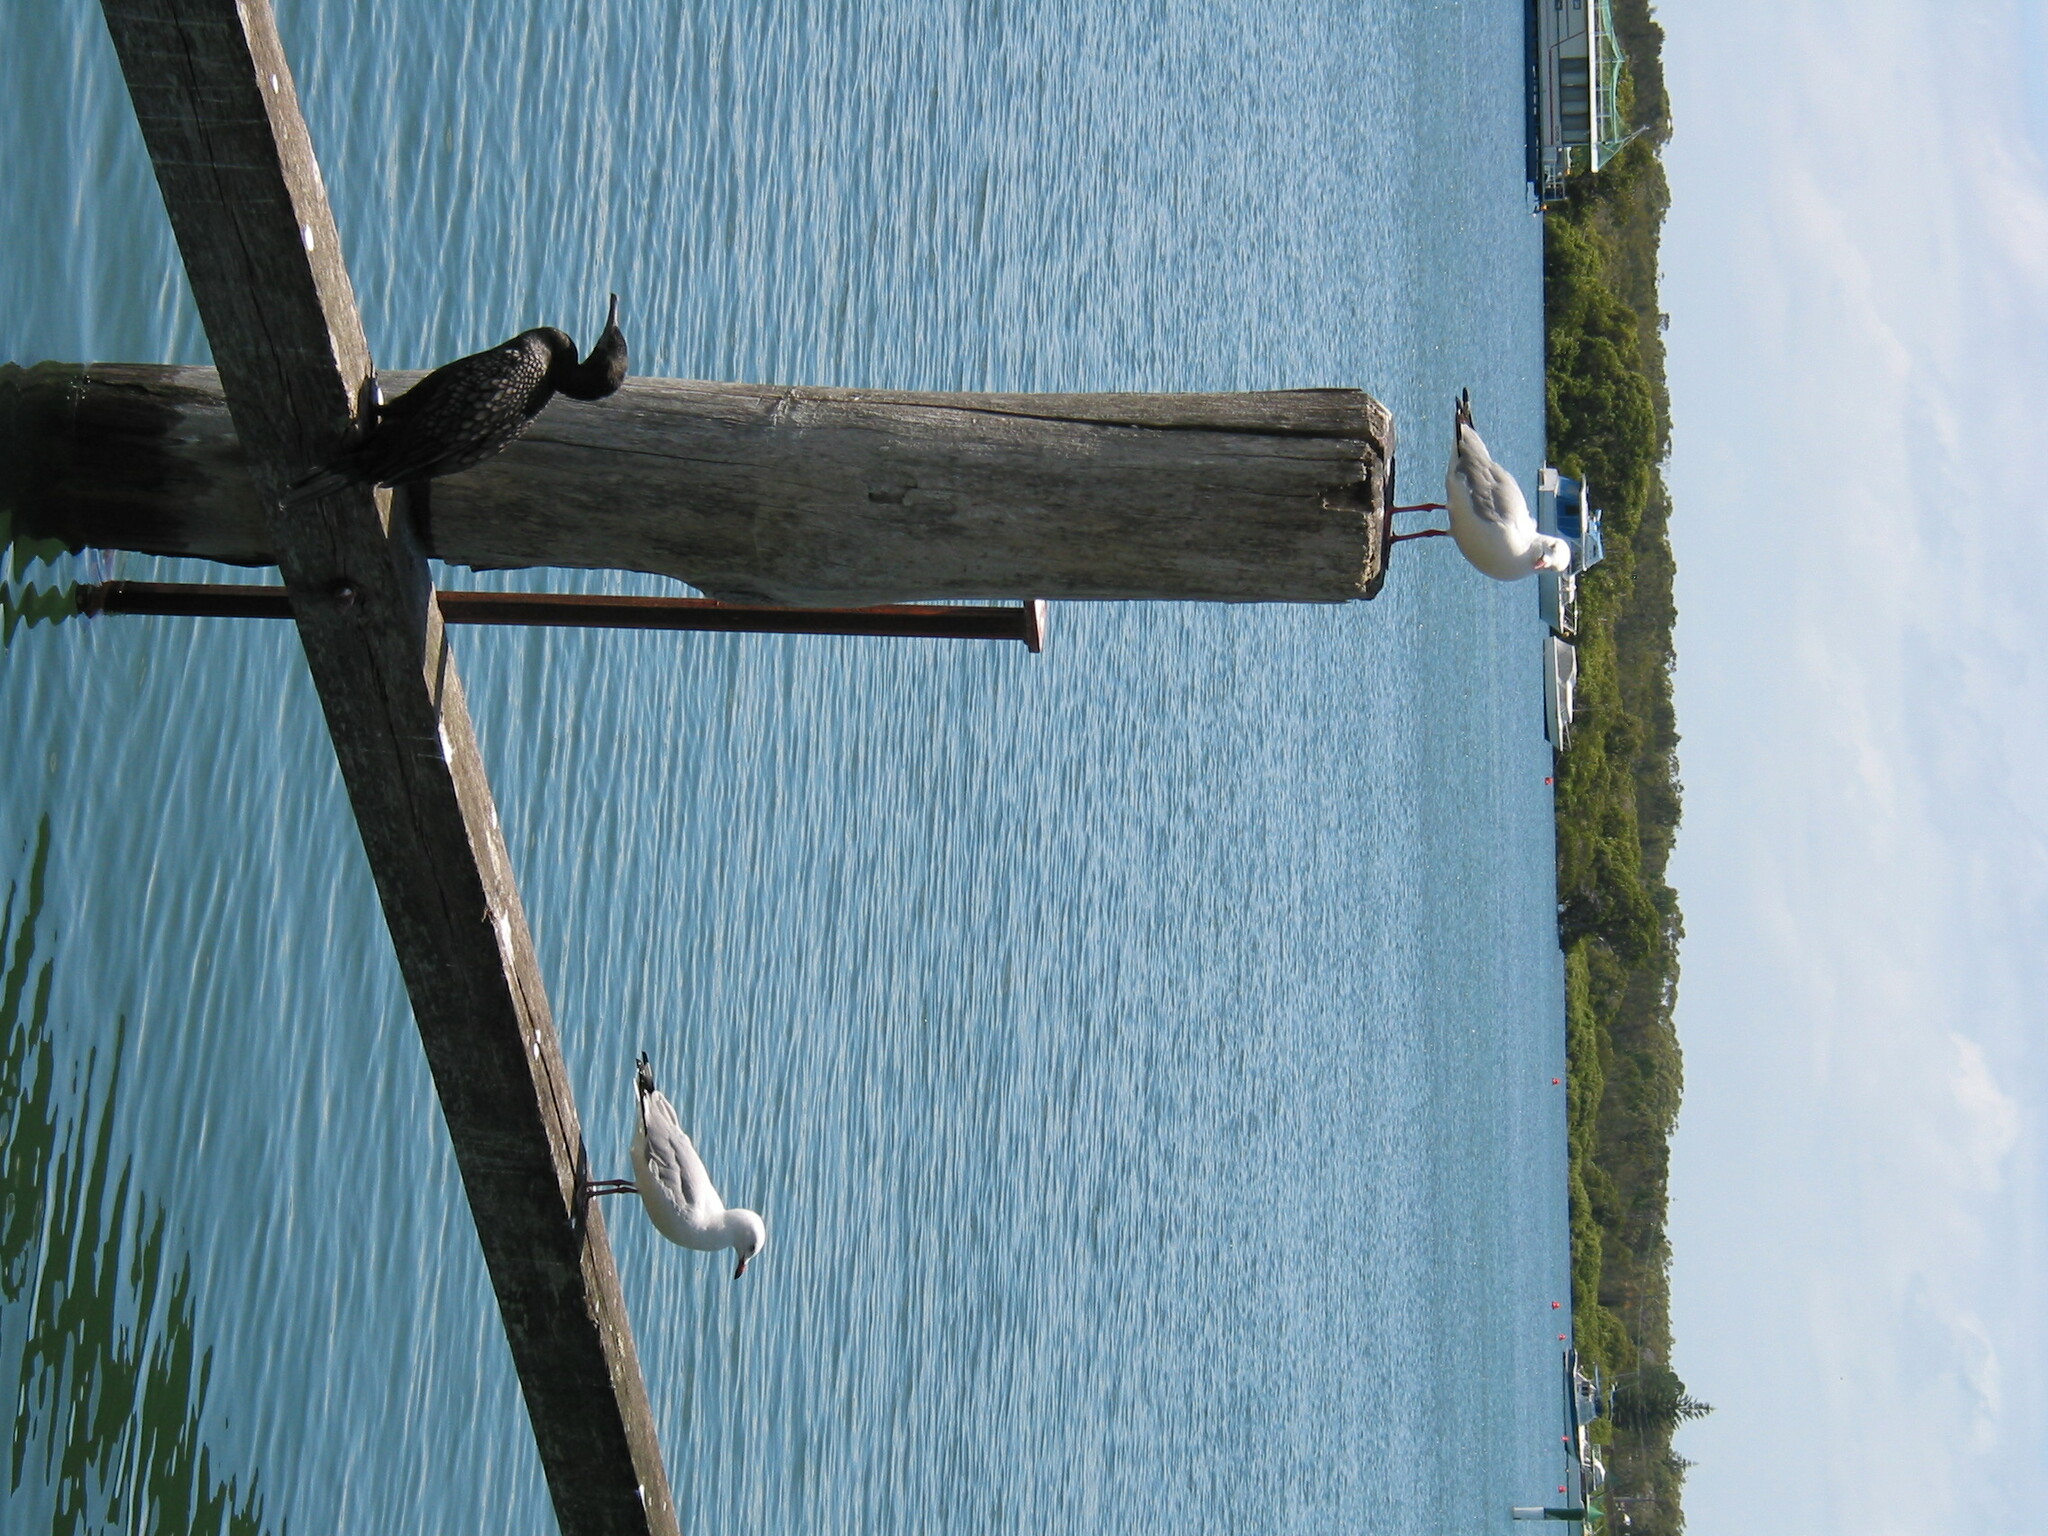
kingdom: Animalia
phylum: Chordata
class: Aves
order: Charadriiformes
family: Laridae
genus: Chroicocephalus
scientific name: Chroicocephalus novaehollandiae
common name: Silver gull
